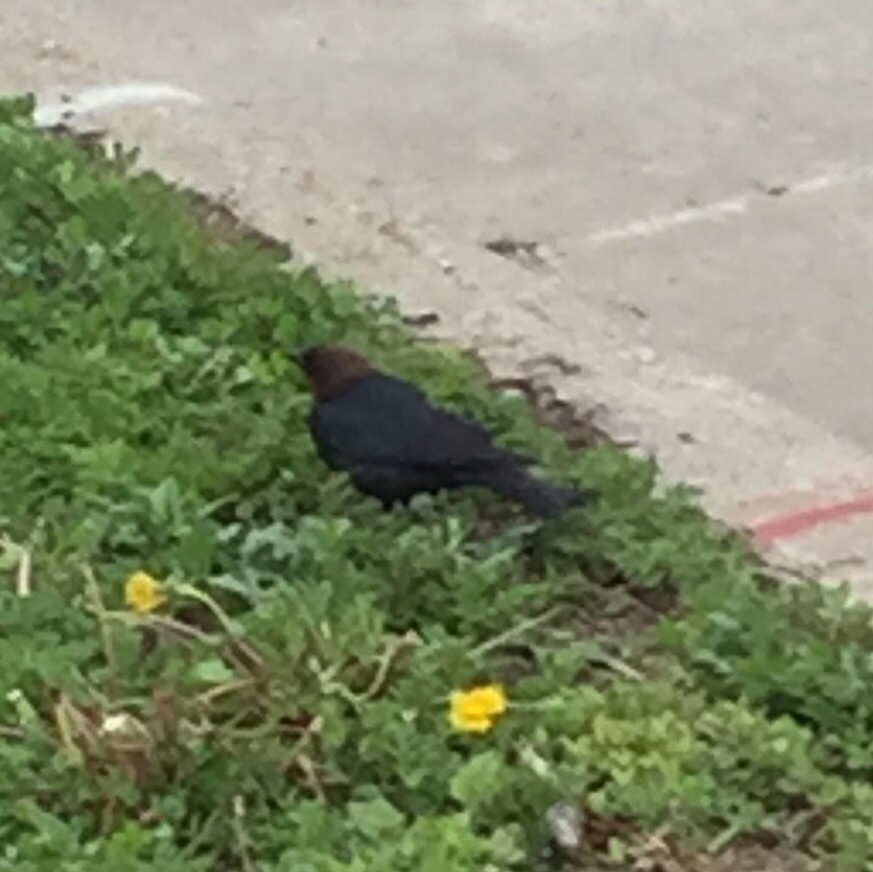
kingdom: Animalia
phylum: Chordata
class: Aves
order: Passeriformes
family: Icteridae
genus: Molothrus
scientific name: Molothrus ater
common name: Brown-headed cowbird
